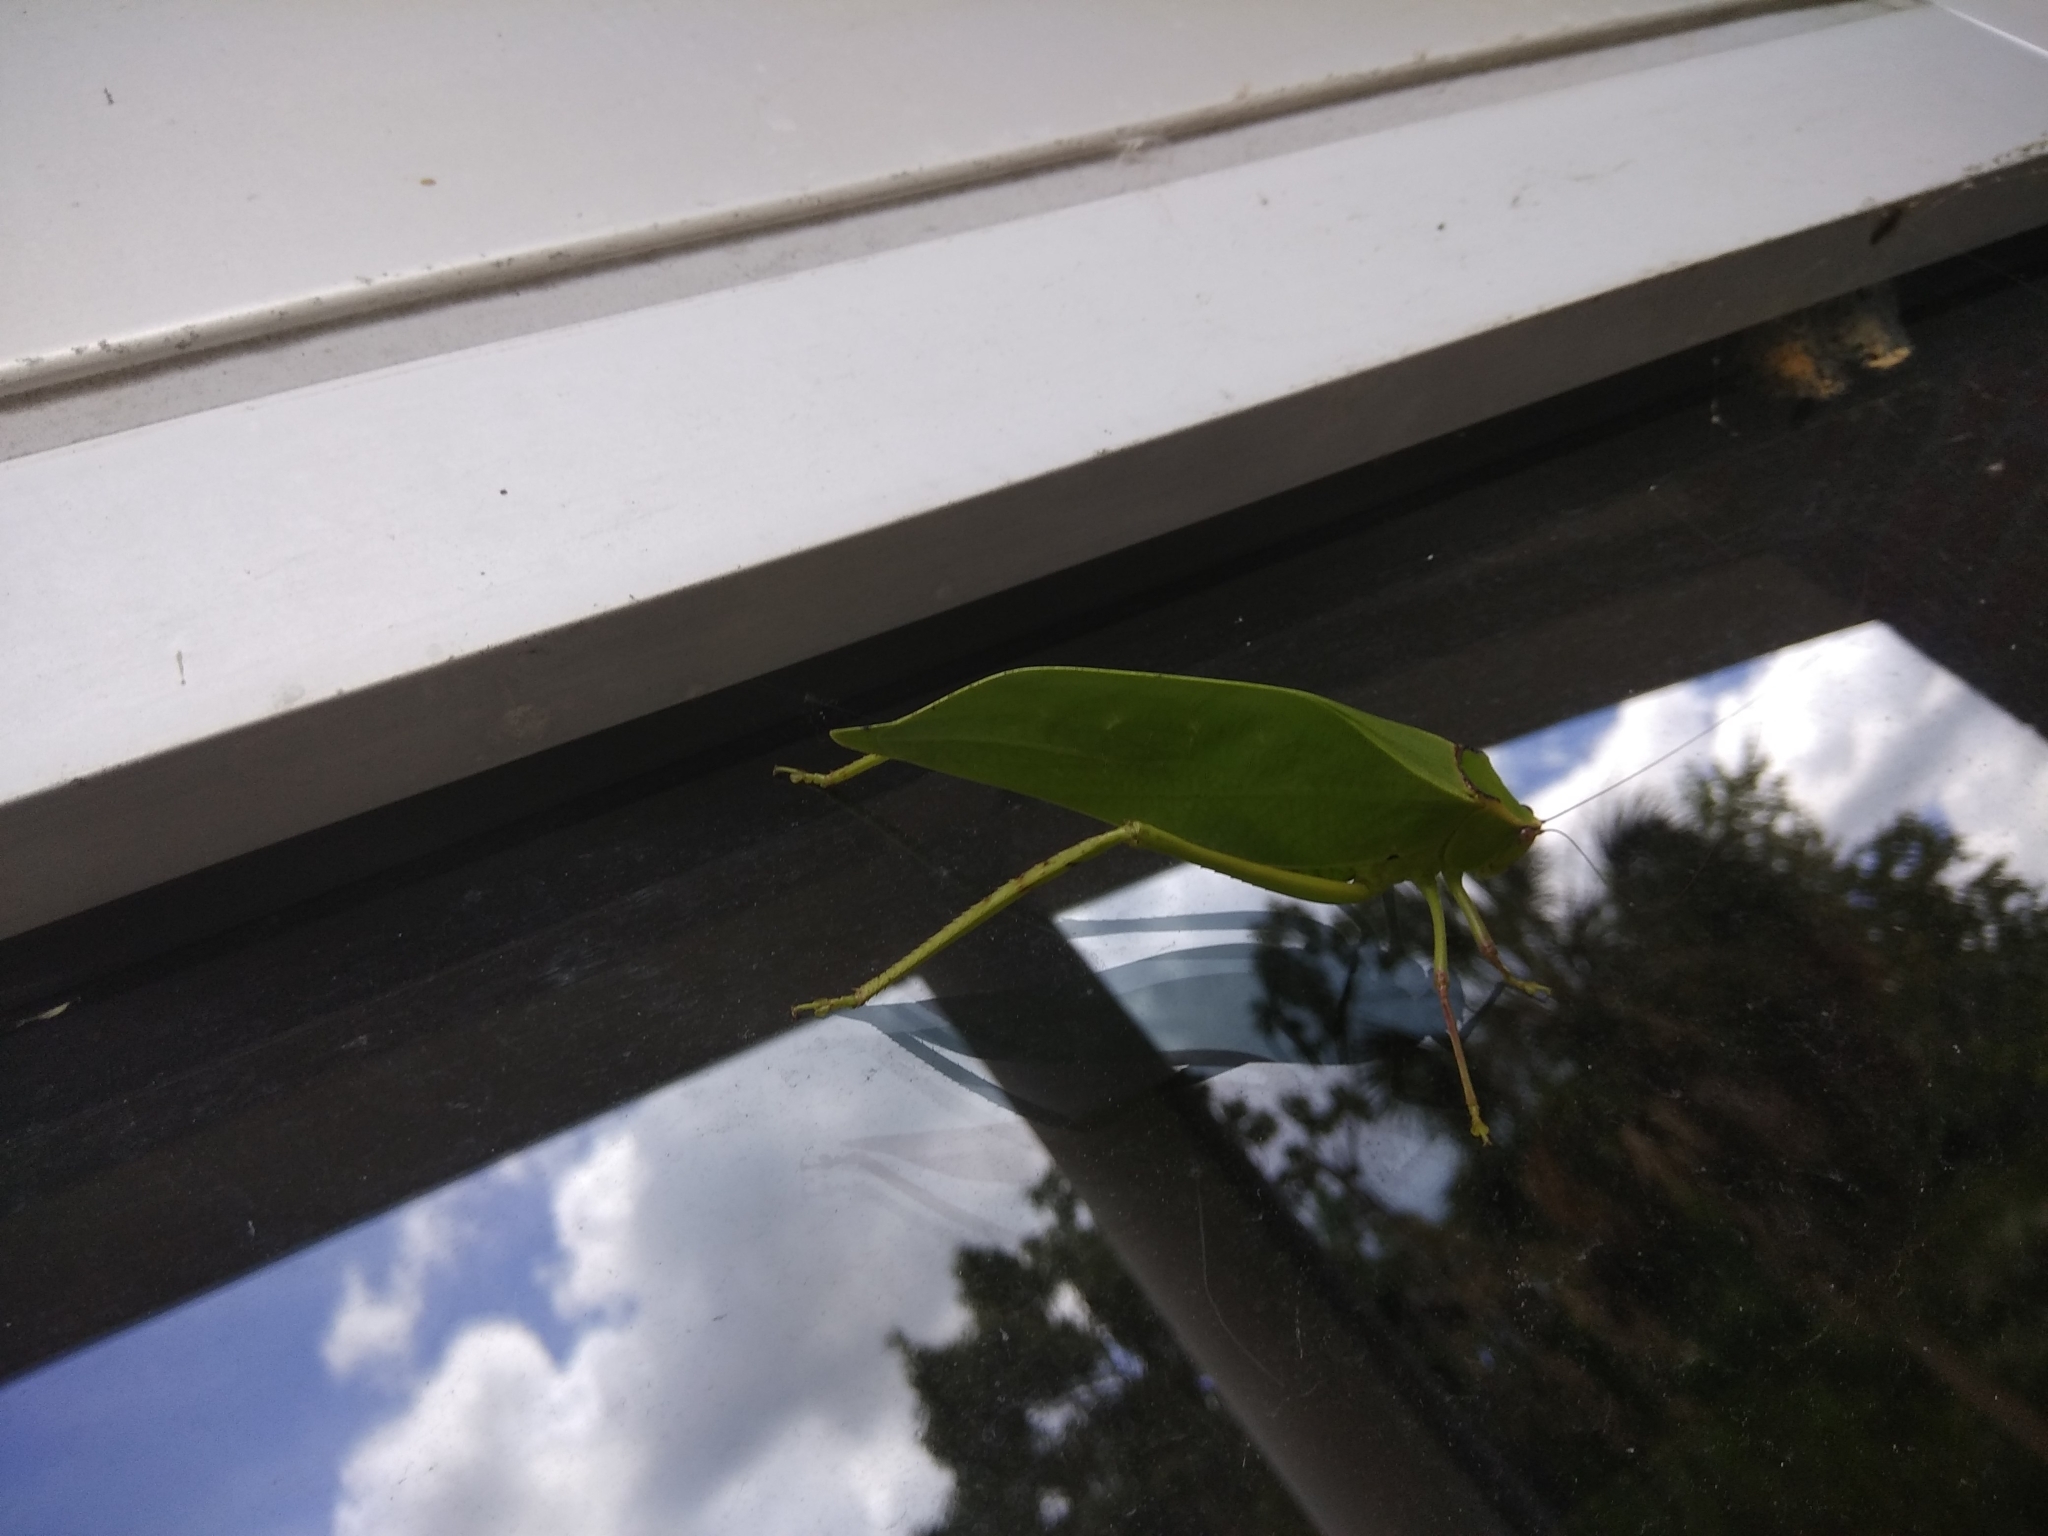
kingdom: Animalia
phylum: Arthropoda
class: Insecta
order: Orthoptera
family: Tettigoniidae
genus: Stilpnochlora
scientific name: Stilpnochlora couloniana
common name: Giant katydid
